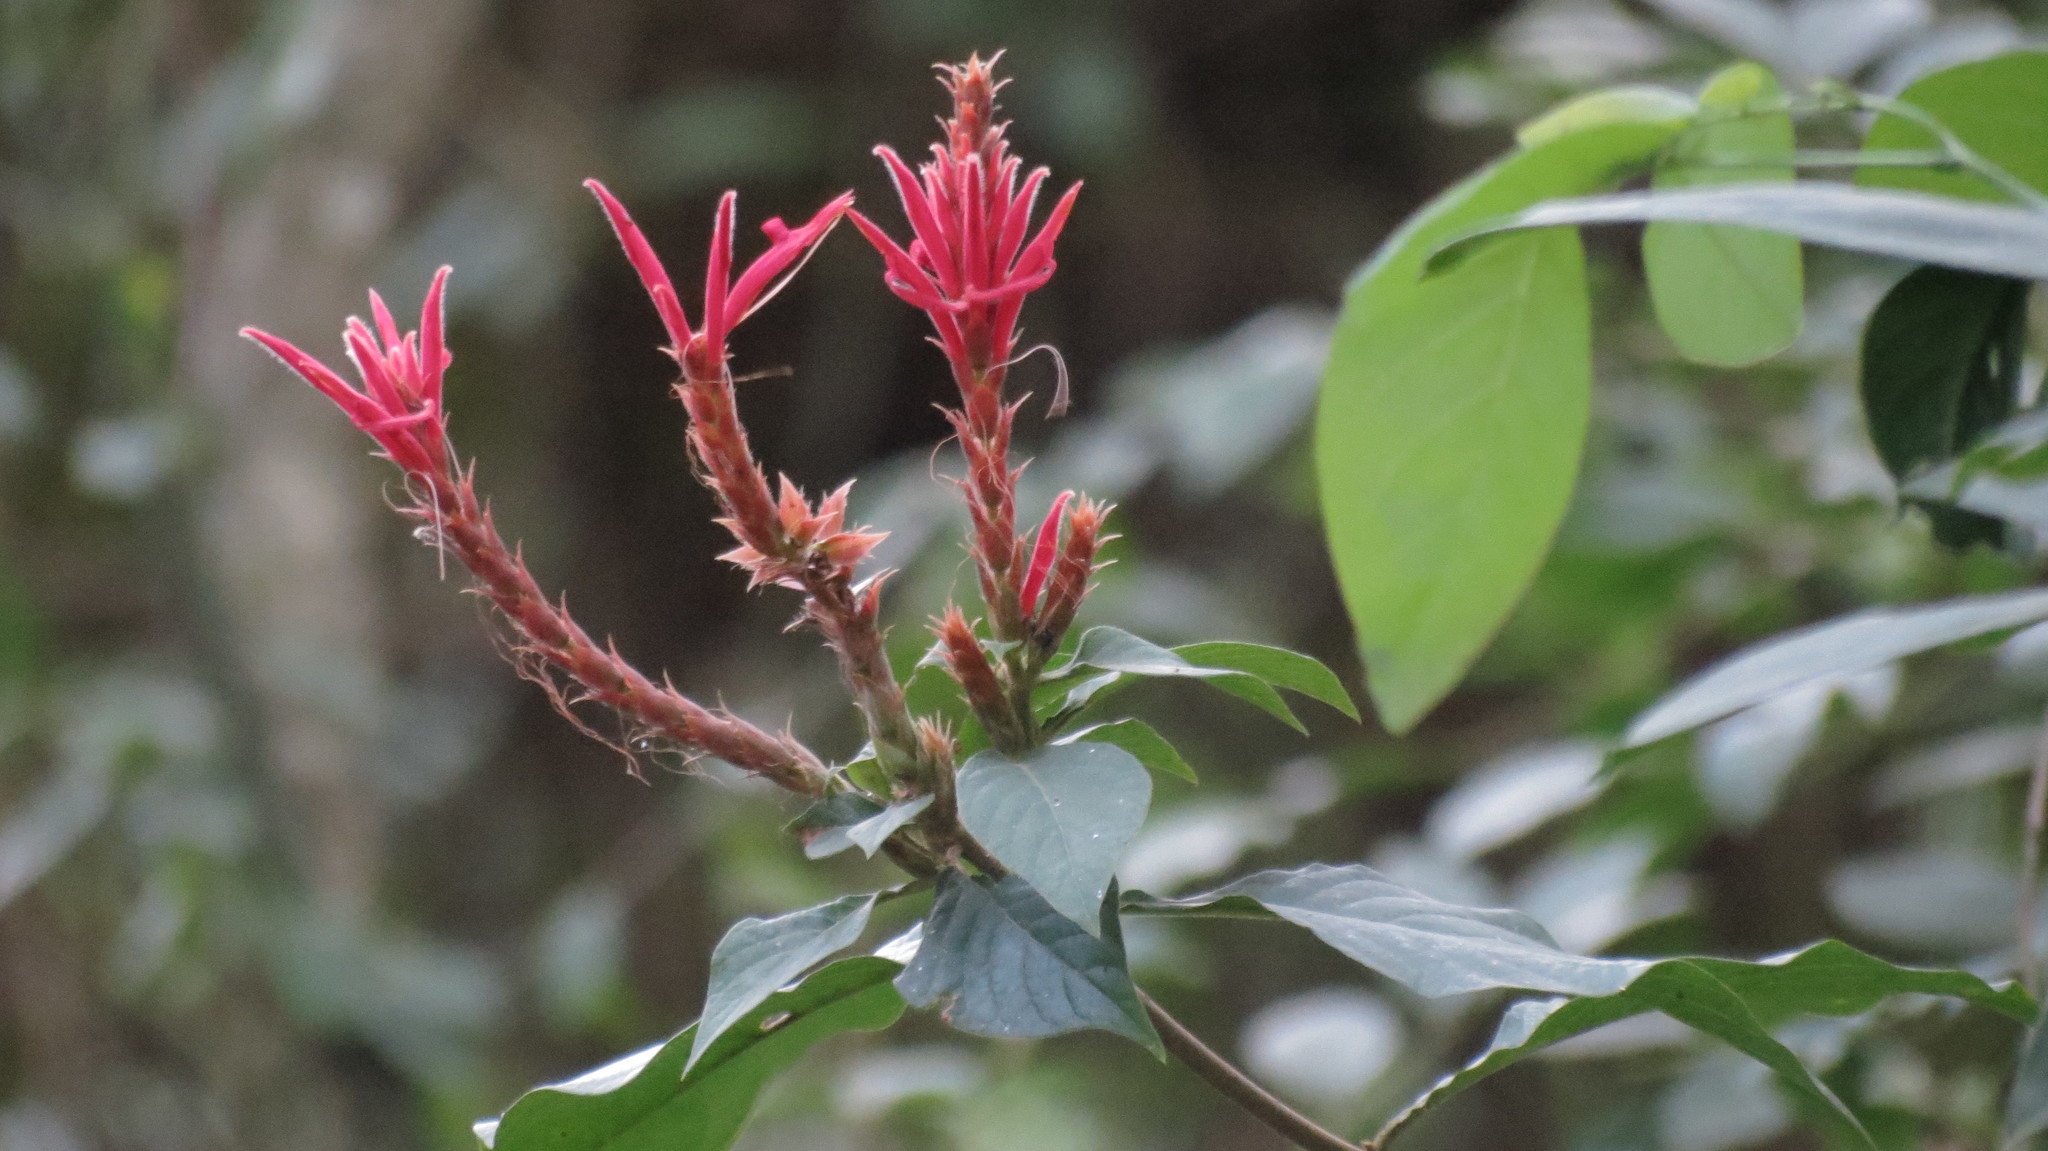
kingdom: Plantae
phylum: Tracheophyta
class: Magnoliopsida
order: Lamiales
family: Acanthaceae
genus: Aphelandra
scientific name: Aphelandra scabra
